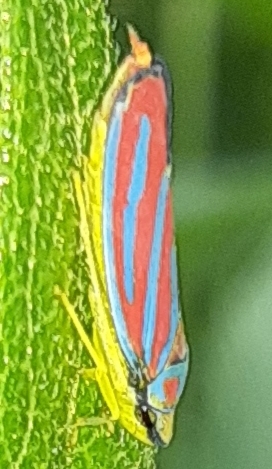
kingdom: Animalia
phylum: Arthropoda
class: Insecta
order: Hemiptera
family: Cicadellidae
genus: Graphocephala
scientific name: Graphocephala coccinea
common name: Candy-striped leafhopper
